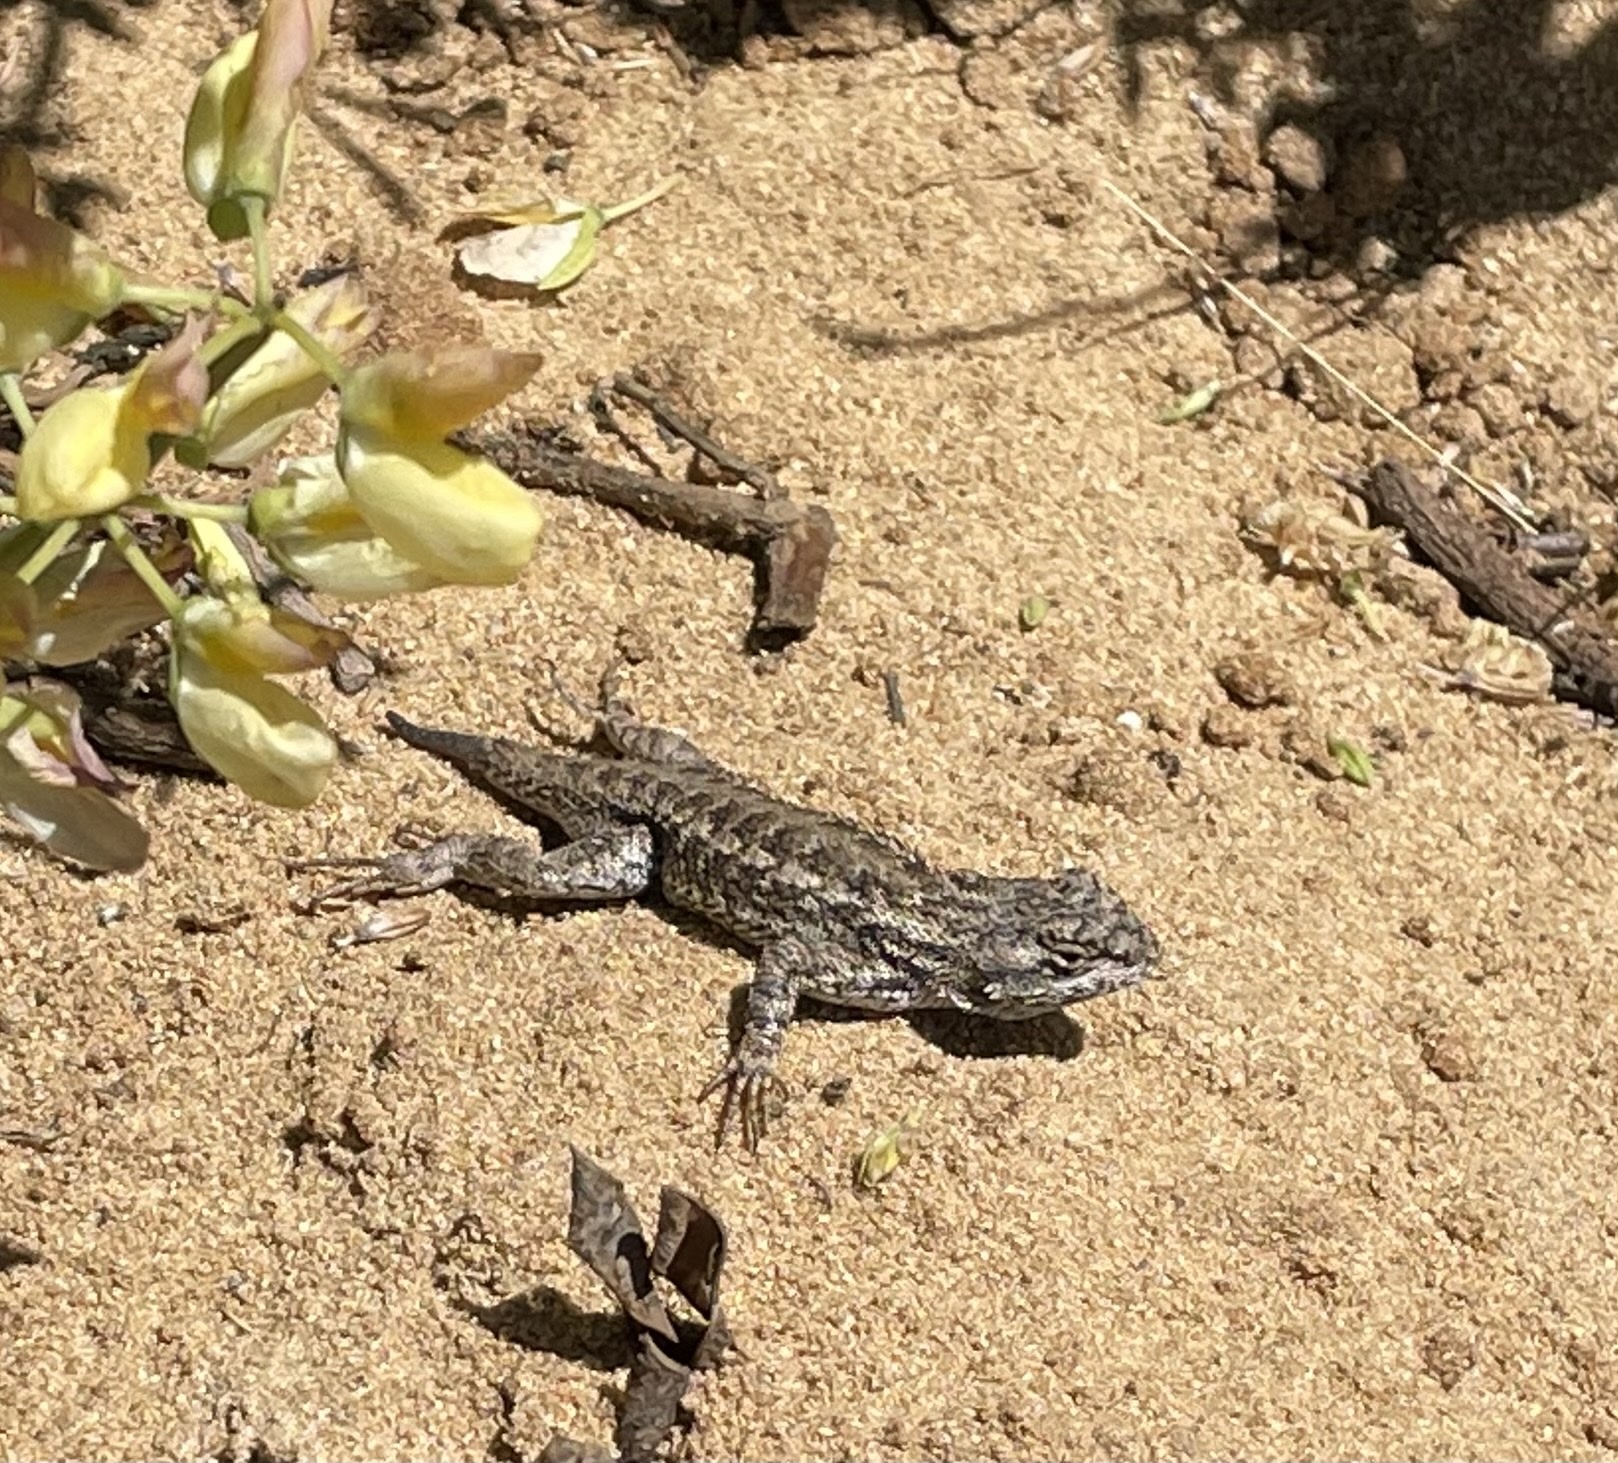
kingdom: Animalia
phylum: Chordata
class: Squamata
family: Phrynosomatidae
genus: Sceloporus
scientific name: Sceloporus occidentalis
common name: Western fence lizard
